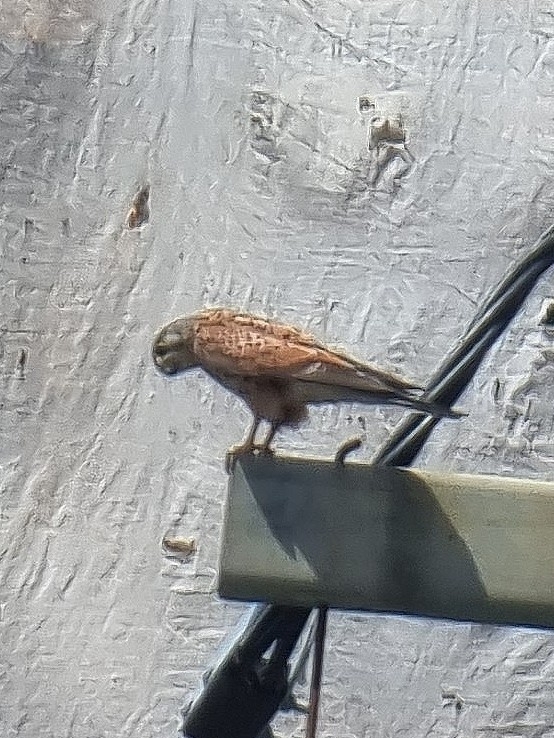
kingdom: Animalia
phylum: Chordata
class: Aves
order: Falconiformes
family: Falconidae
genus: Falco
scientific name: Falco tinnunculus
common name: Common kestrel
